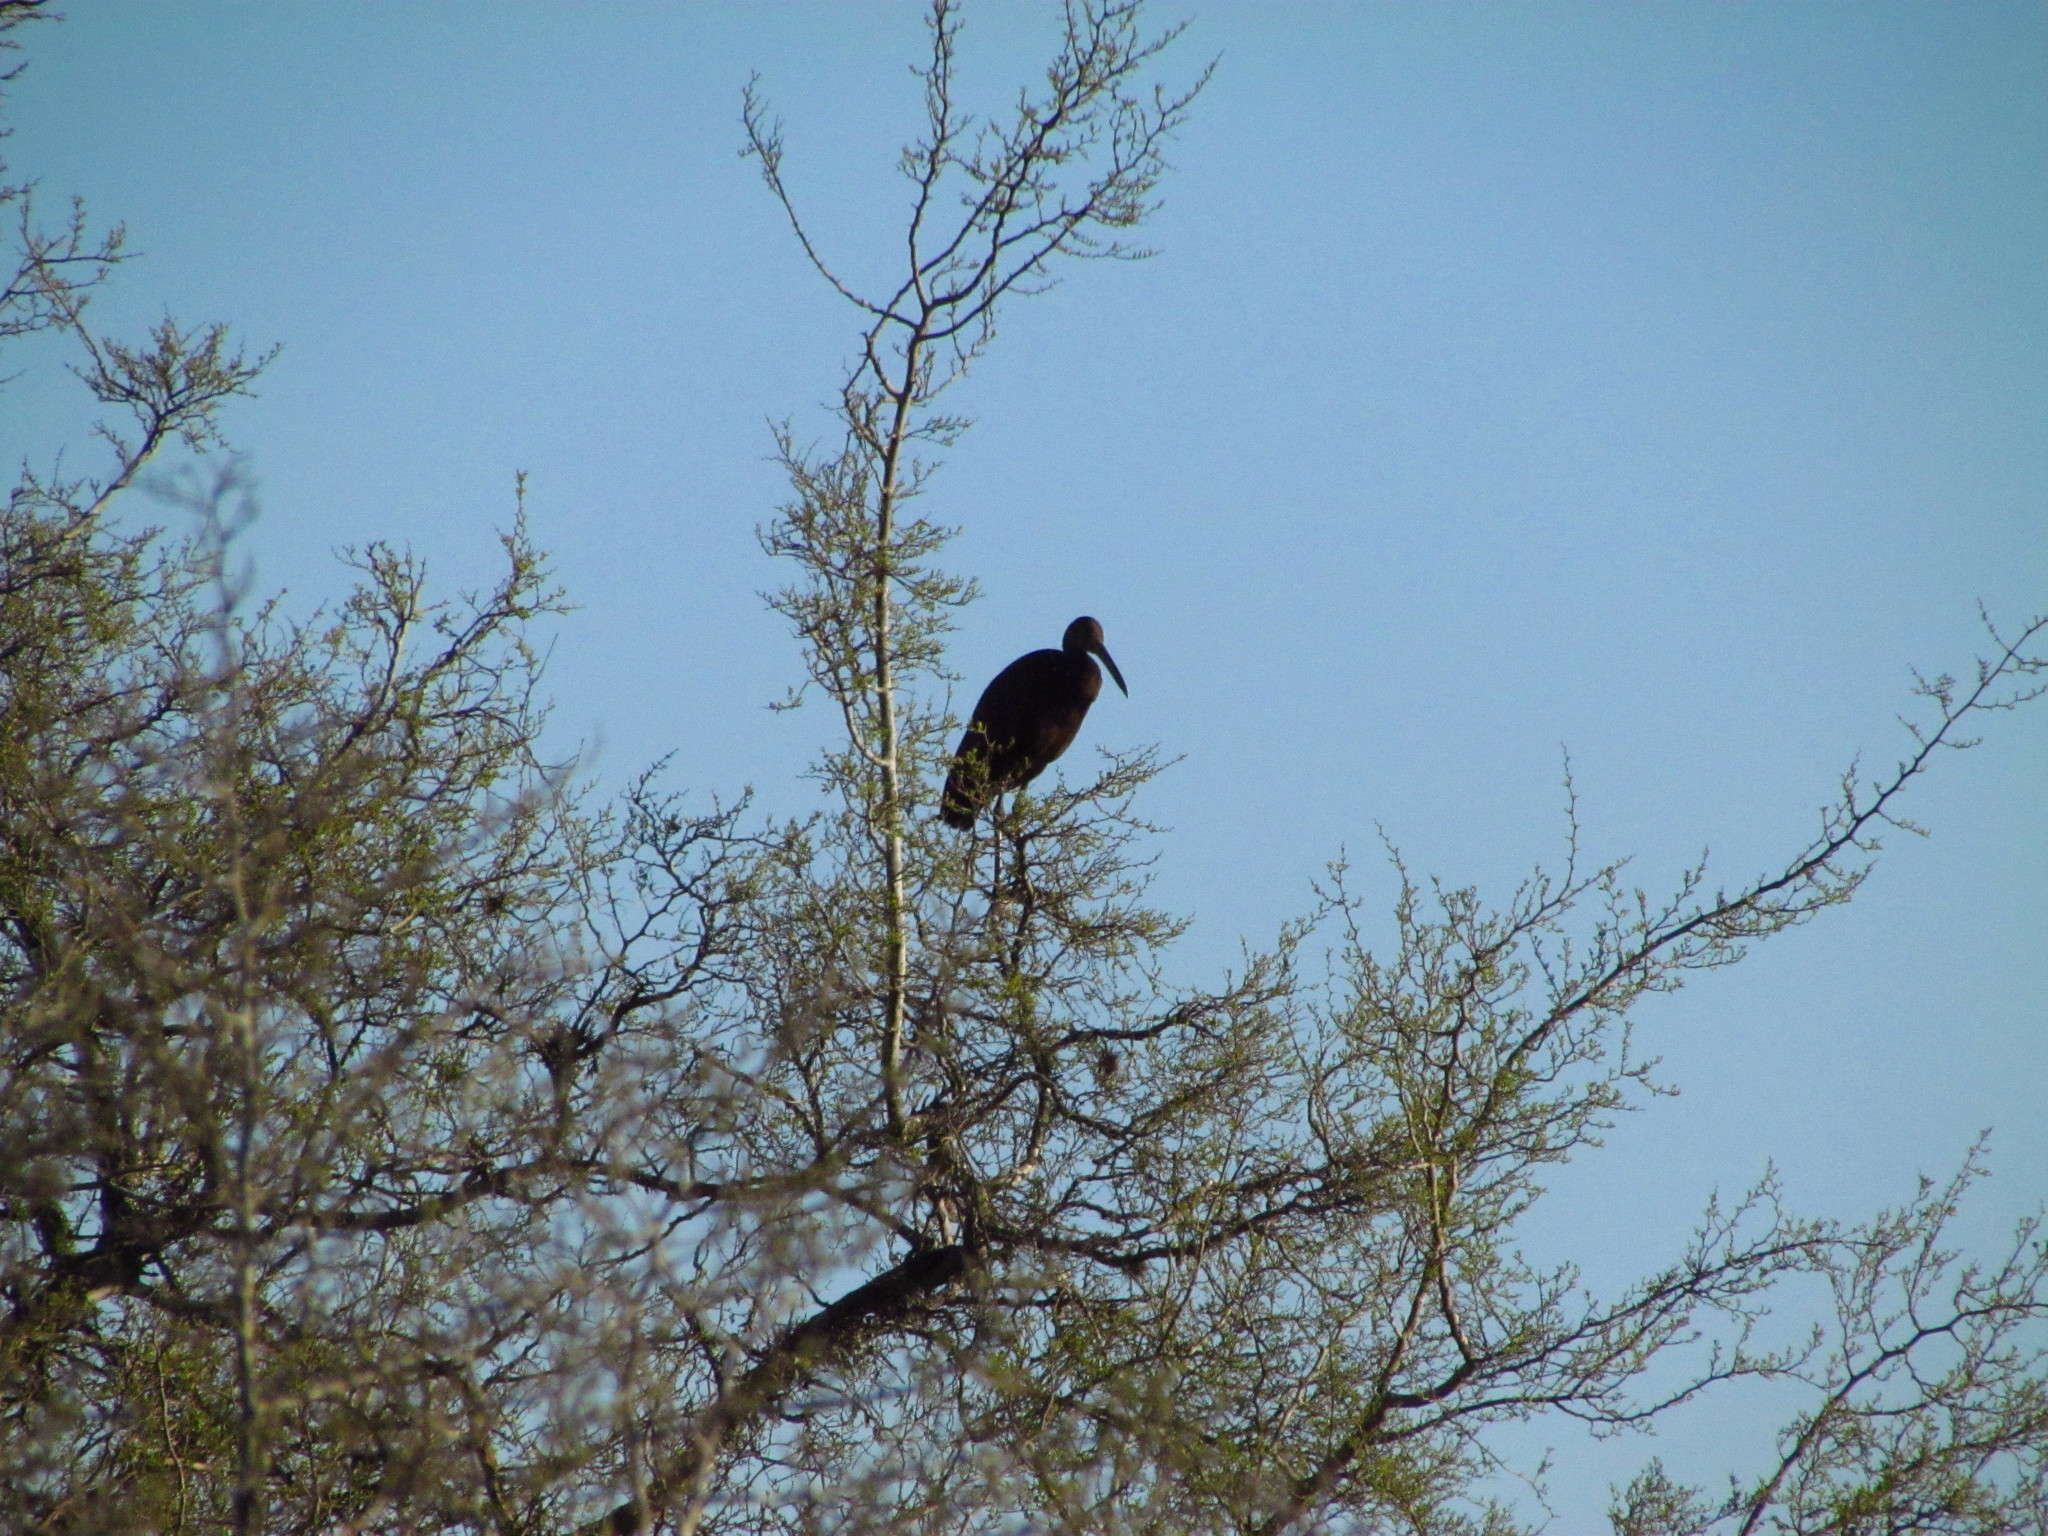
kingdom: Animalia
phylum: Chordata
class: Aves
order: Gruiformes
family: Aramidae
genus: Aramus
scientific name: Aramus guarauna
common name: Limpkin
